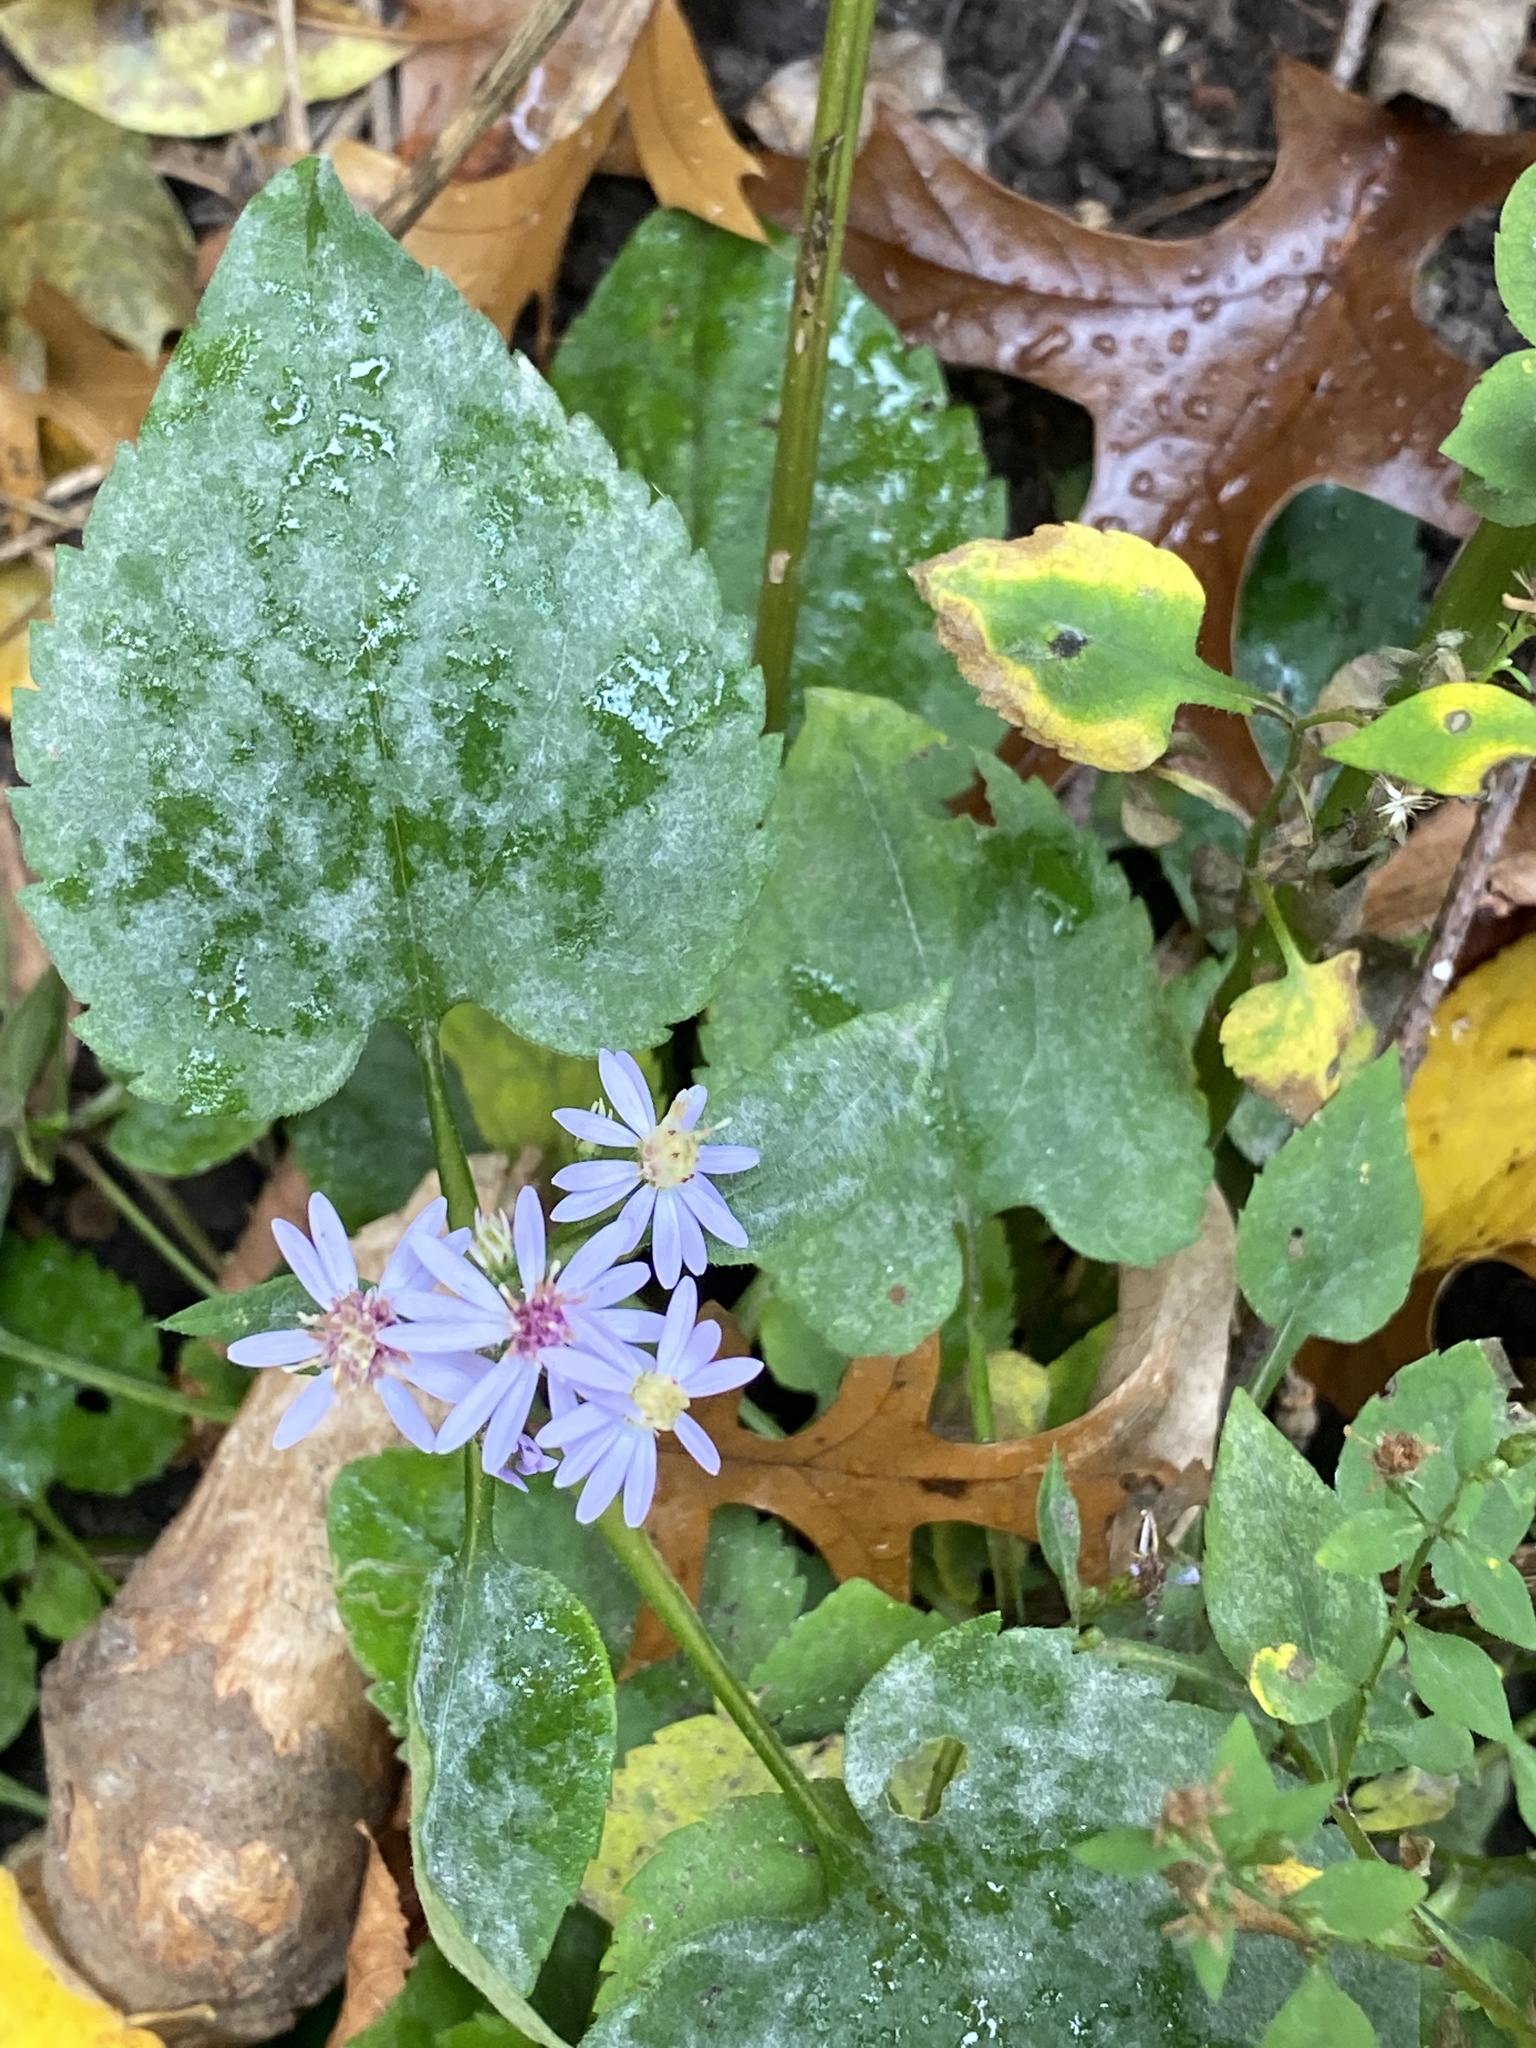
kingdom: Plantae
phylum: Tracheophyta
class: Magnoliopsida
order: Asterales
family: Asteraceae
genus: Symphyotrichum
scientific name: Symphyotrichum cordifolium
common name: Beeweed
